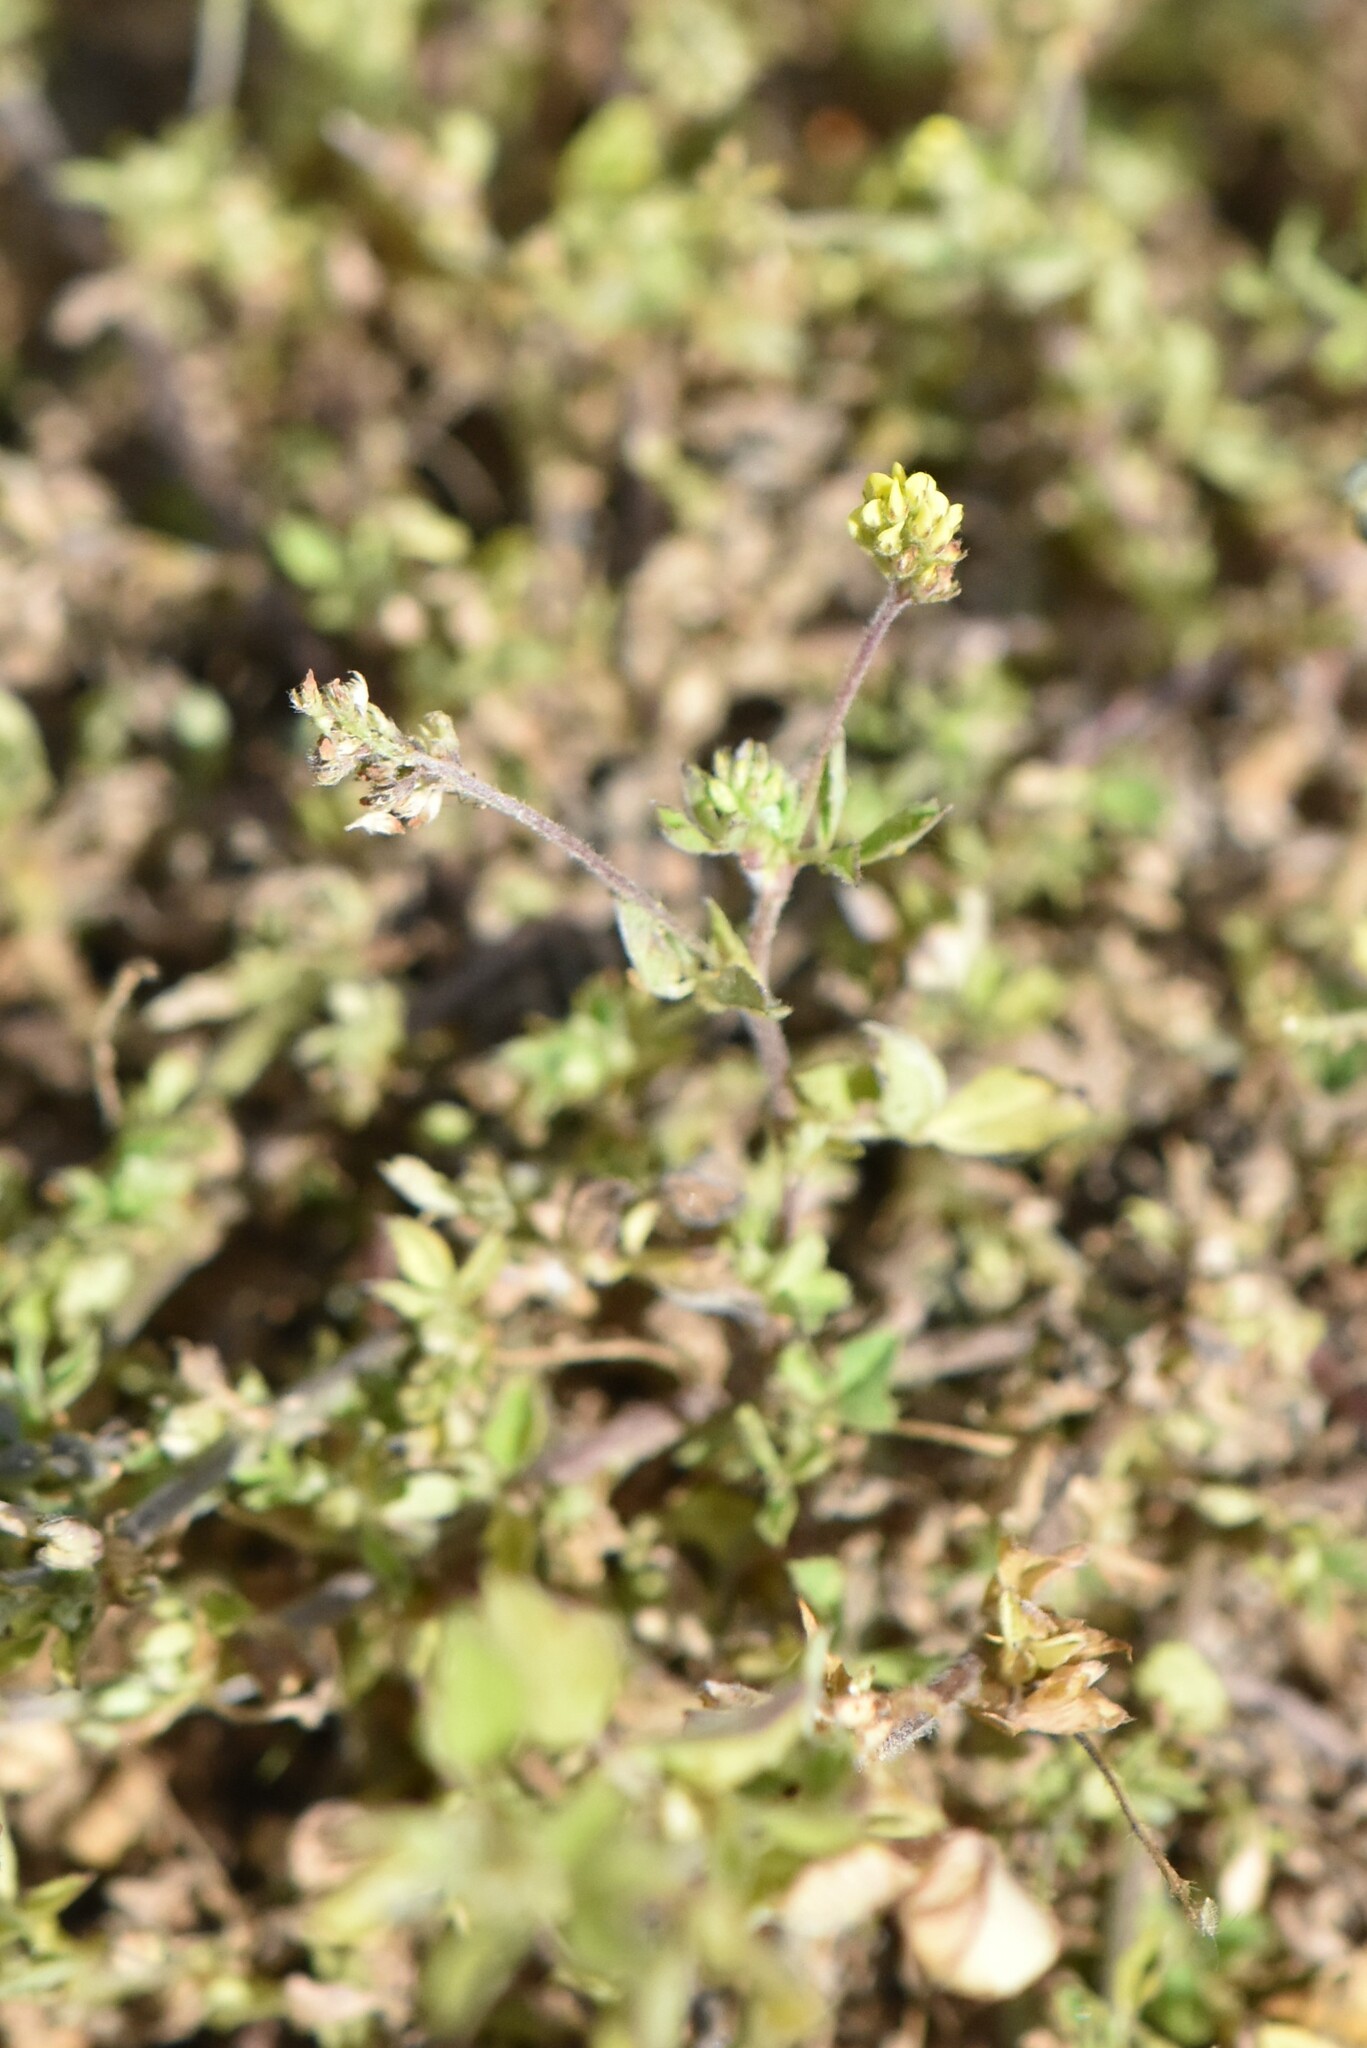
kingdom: Plantae
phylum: Tracheophyta
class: Magnoliopsida
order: Fabales
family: Fabaceae
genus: Medicago
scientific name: Medicago lupulina
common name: Black medick
